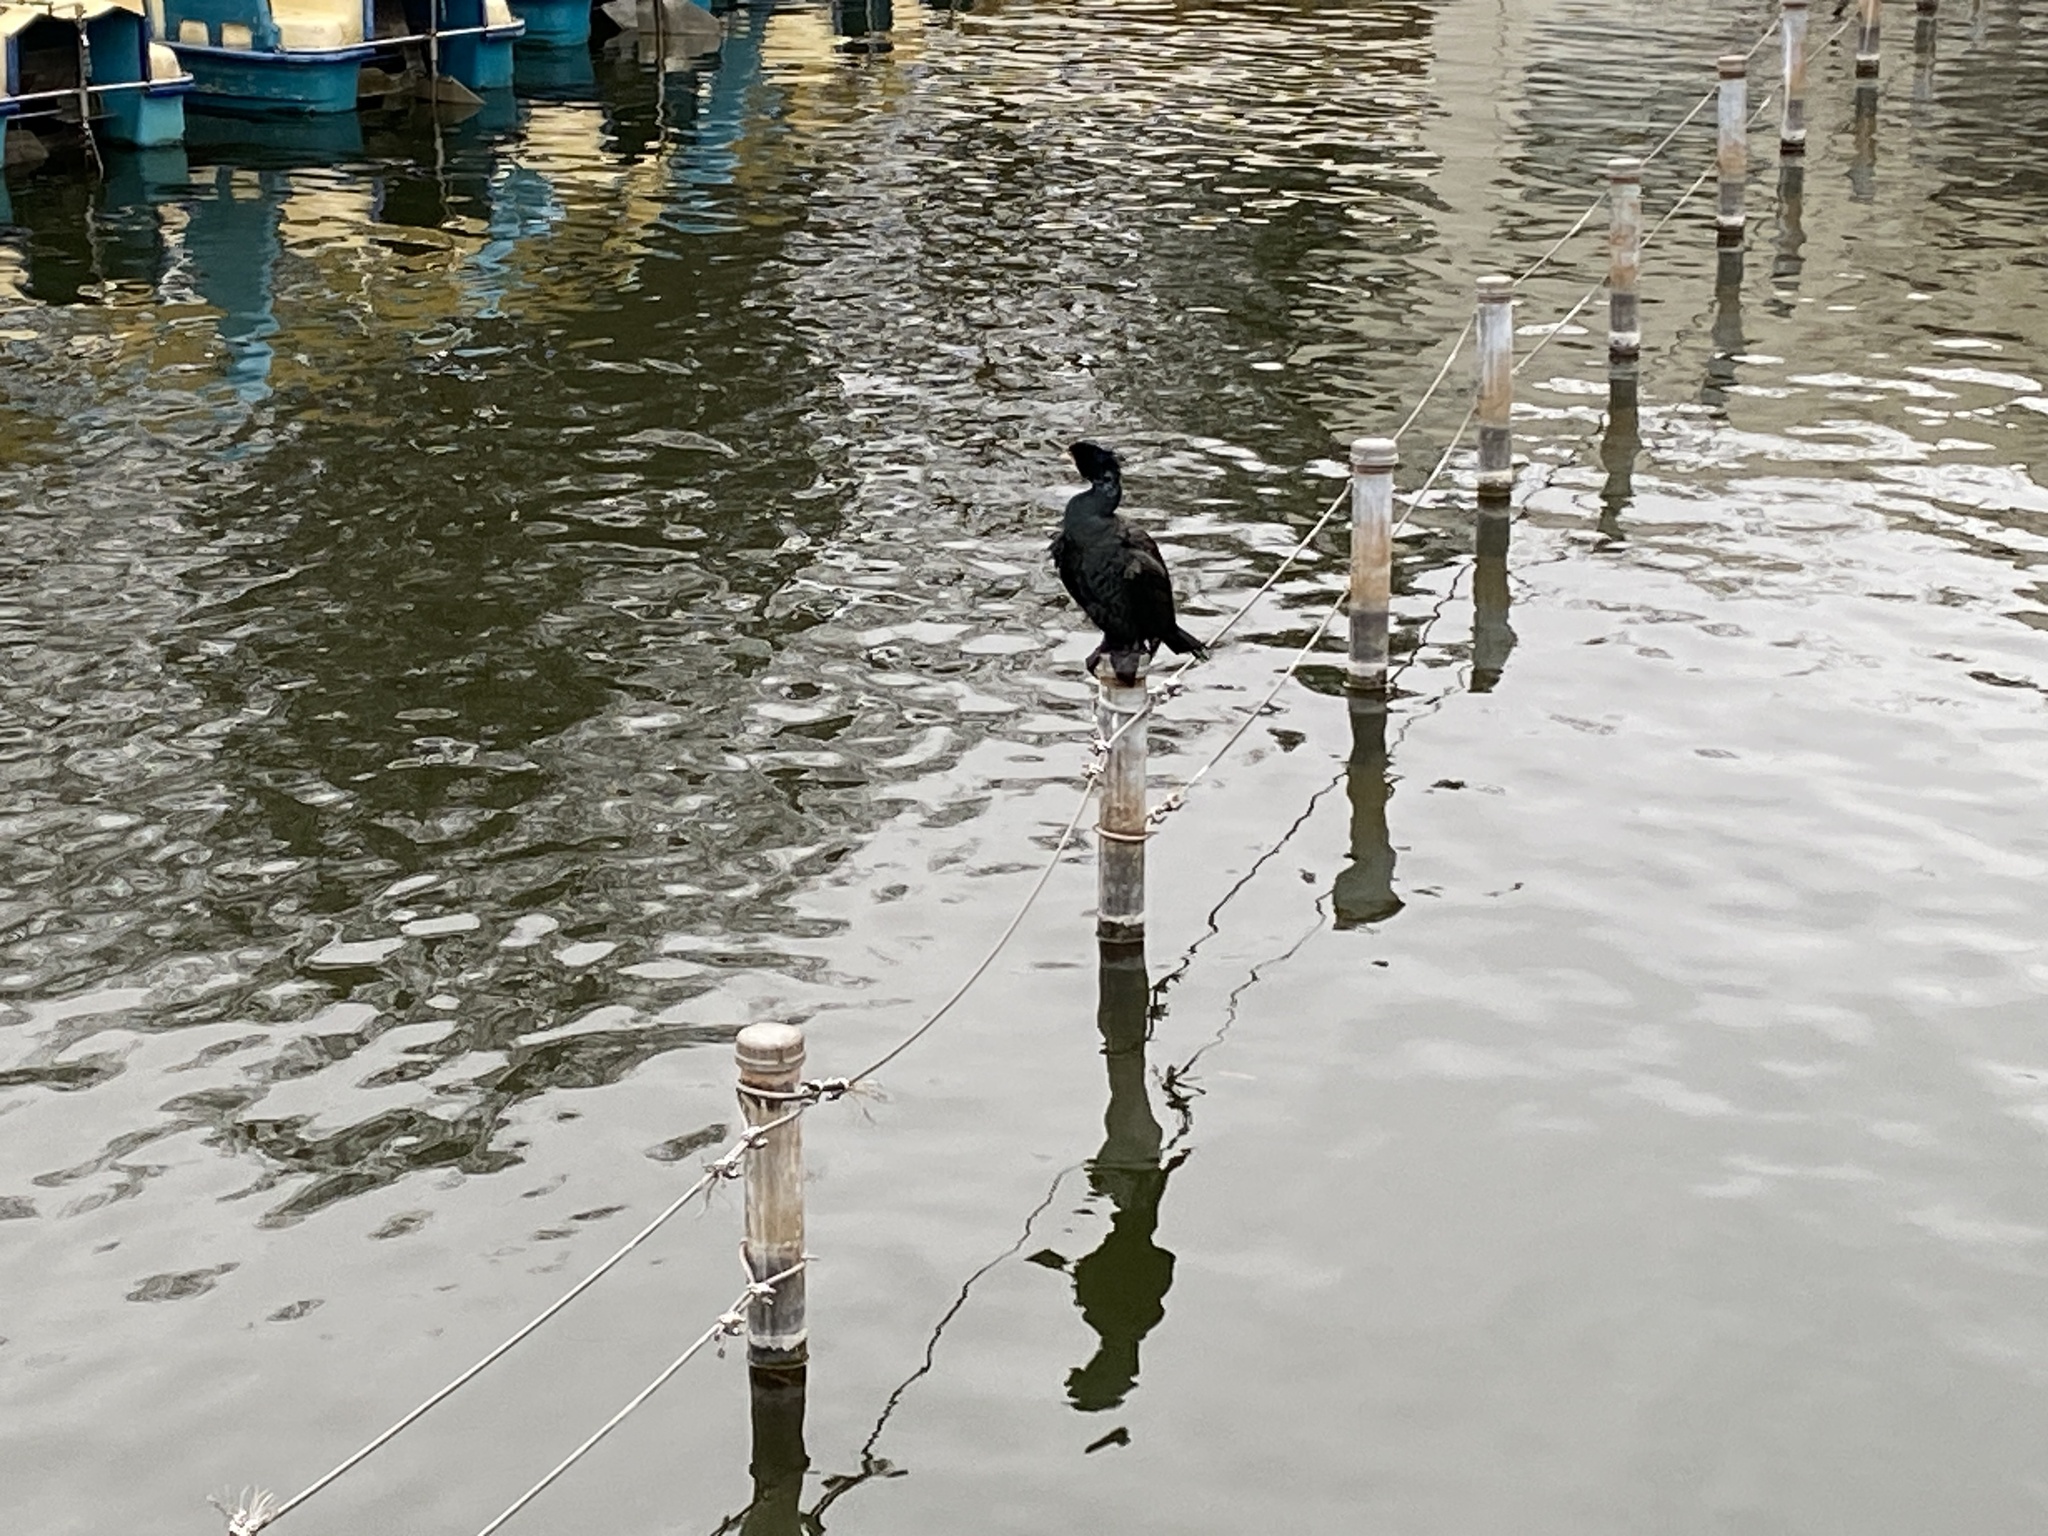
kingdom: Animalia
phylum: Chordata
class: Aves
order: Suliformes
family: Phalacrocoracidae
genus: Phalacrocorax
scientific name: Phalacrocorax carbo
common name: Great cormorant
